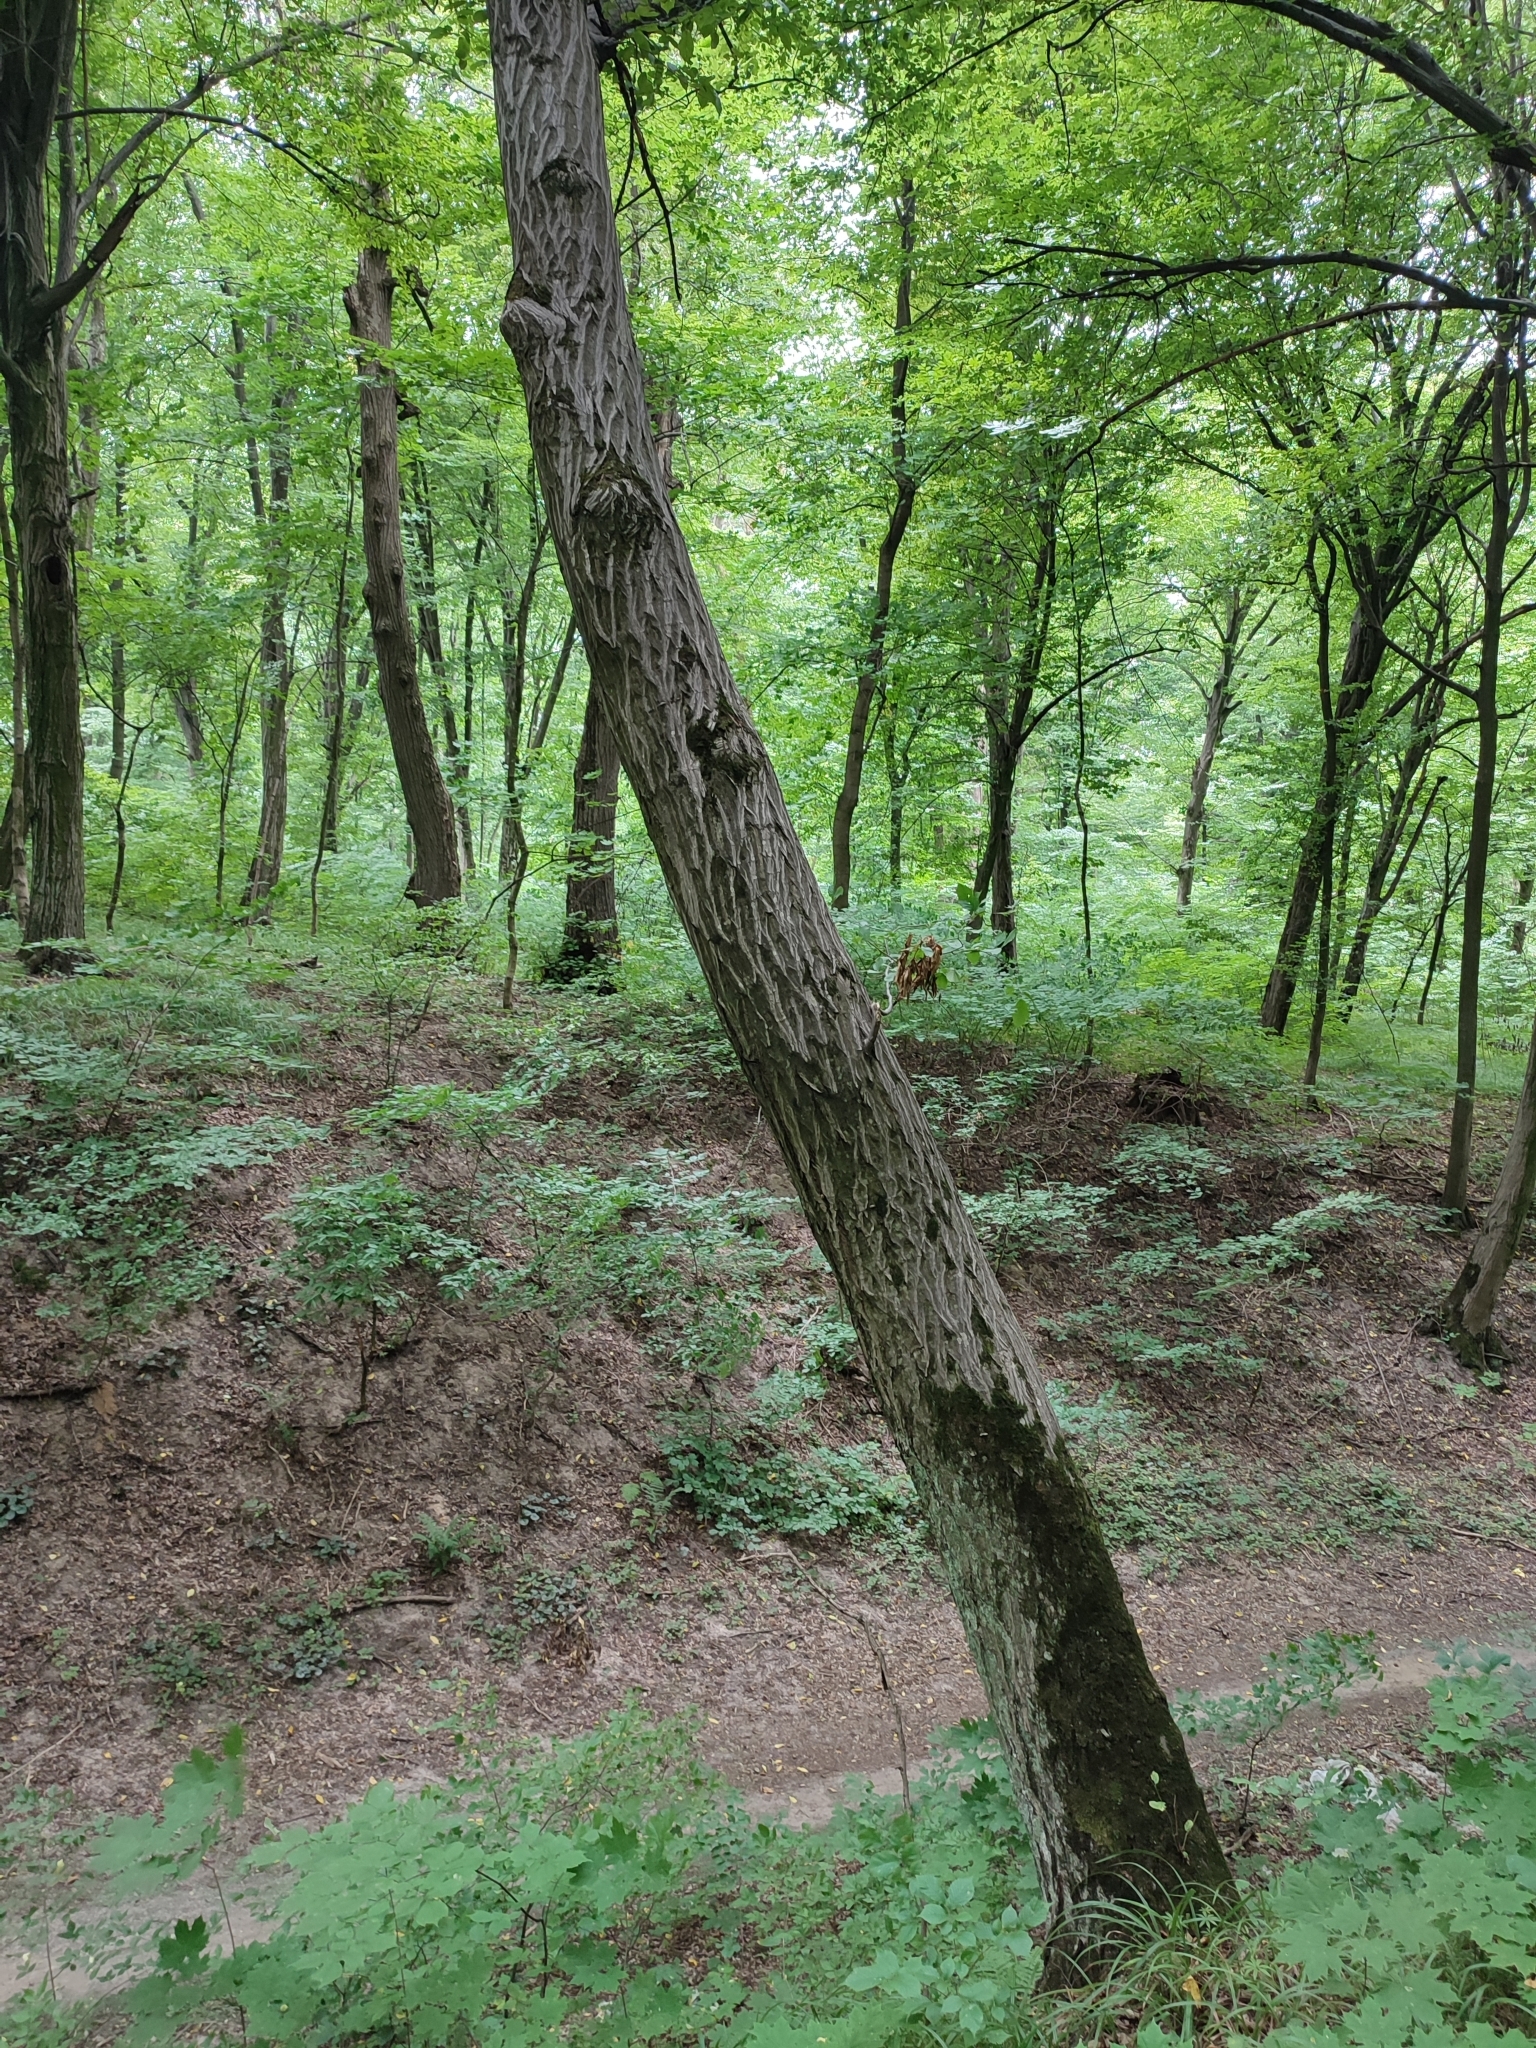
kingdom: Plantae
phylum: Tracheophyta
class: Magnoliopsida
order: Fagales
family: Betulaceae
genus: Carpinus
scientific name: Carpinus betulus
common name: Hornbeam
